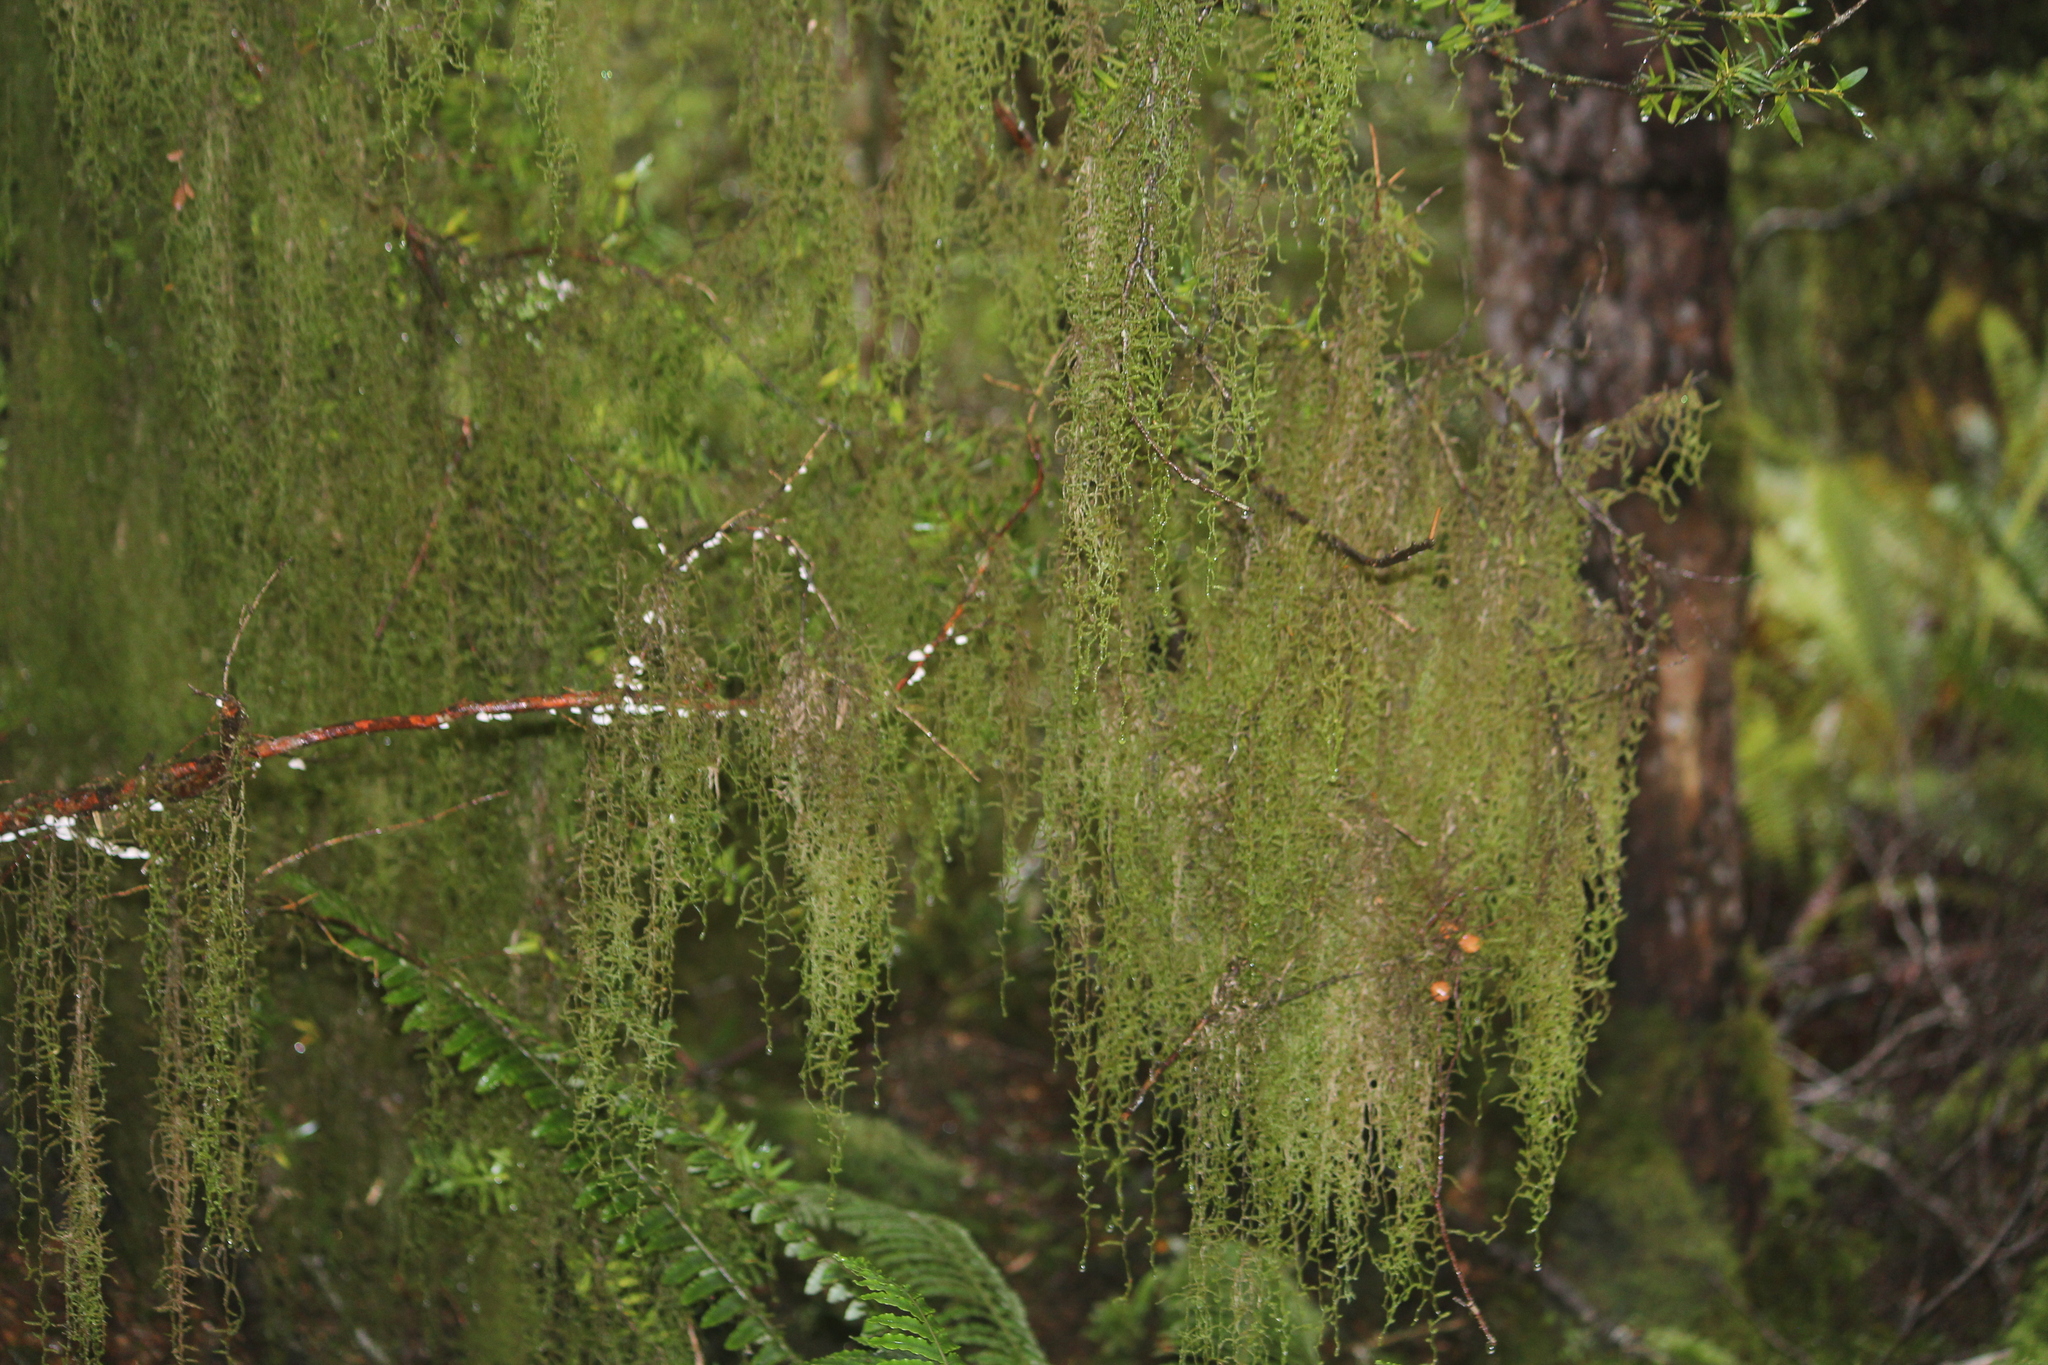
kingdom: Plantae
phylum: Bryophyta
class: Bryopsida
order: Hypnales
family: Lembophyllaceae
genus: Weymouthia
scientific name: Weymouthia mollis
